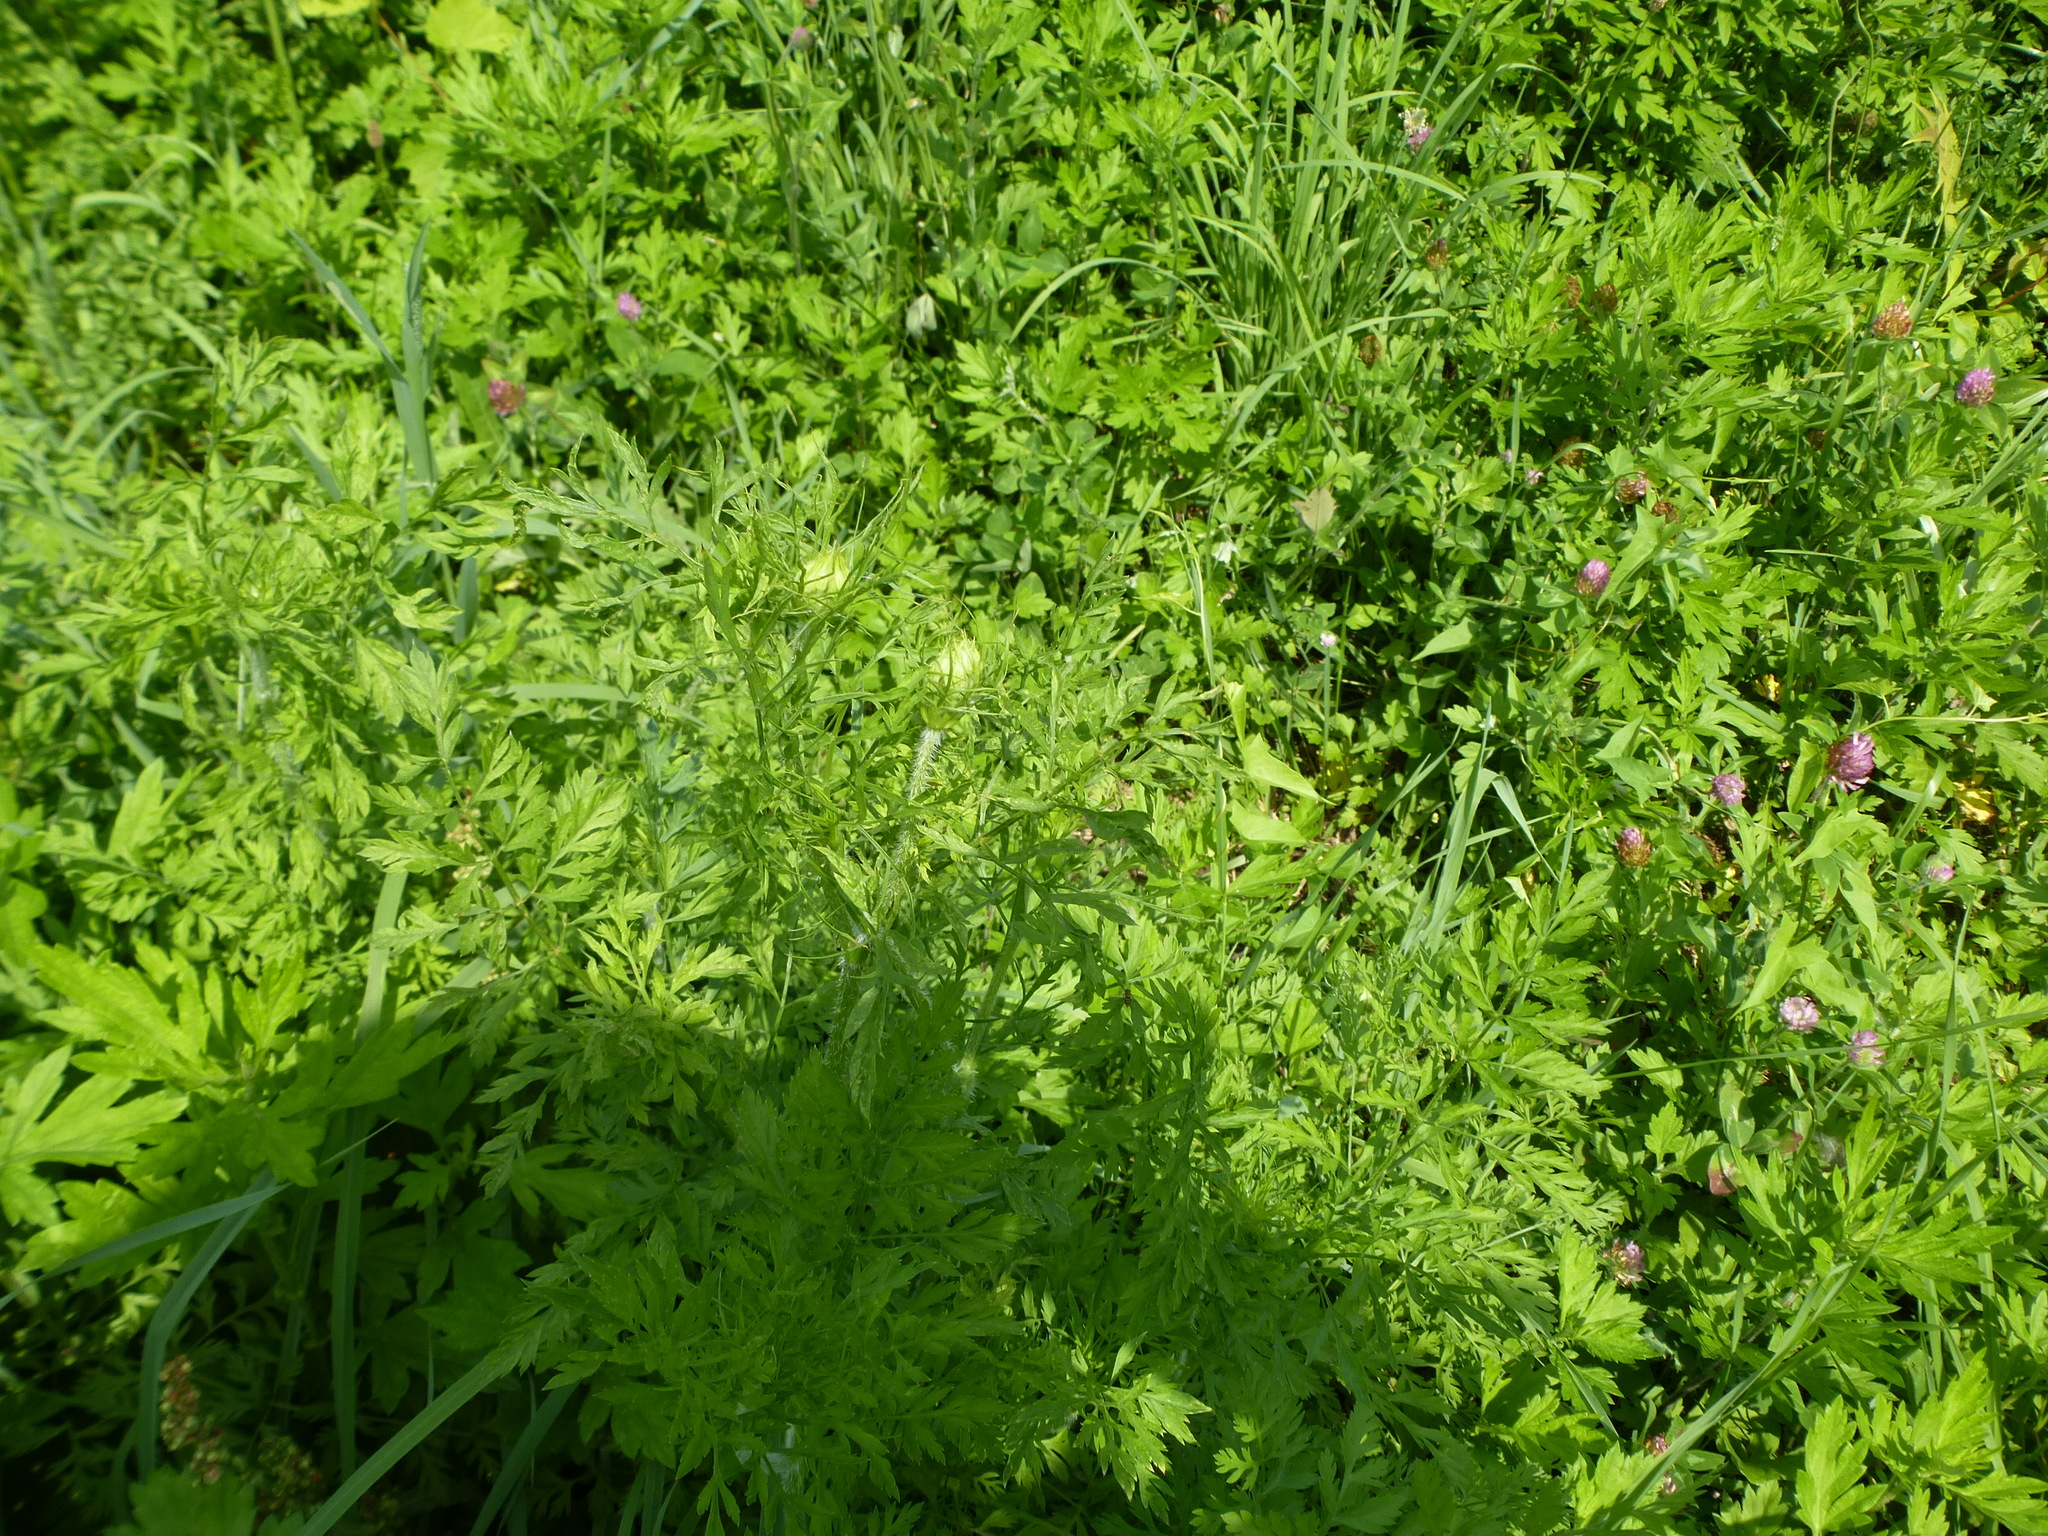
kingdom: Plantae
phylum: Tracheophyta
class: Magnoliopsida
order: Asterales
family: Asteraceae
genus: Artemisia
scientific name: Artemisia vulgaris
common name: Mugwort
